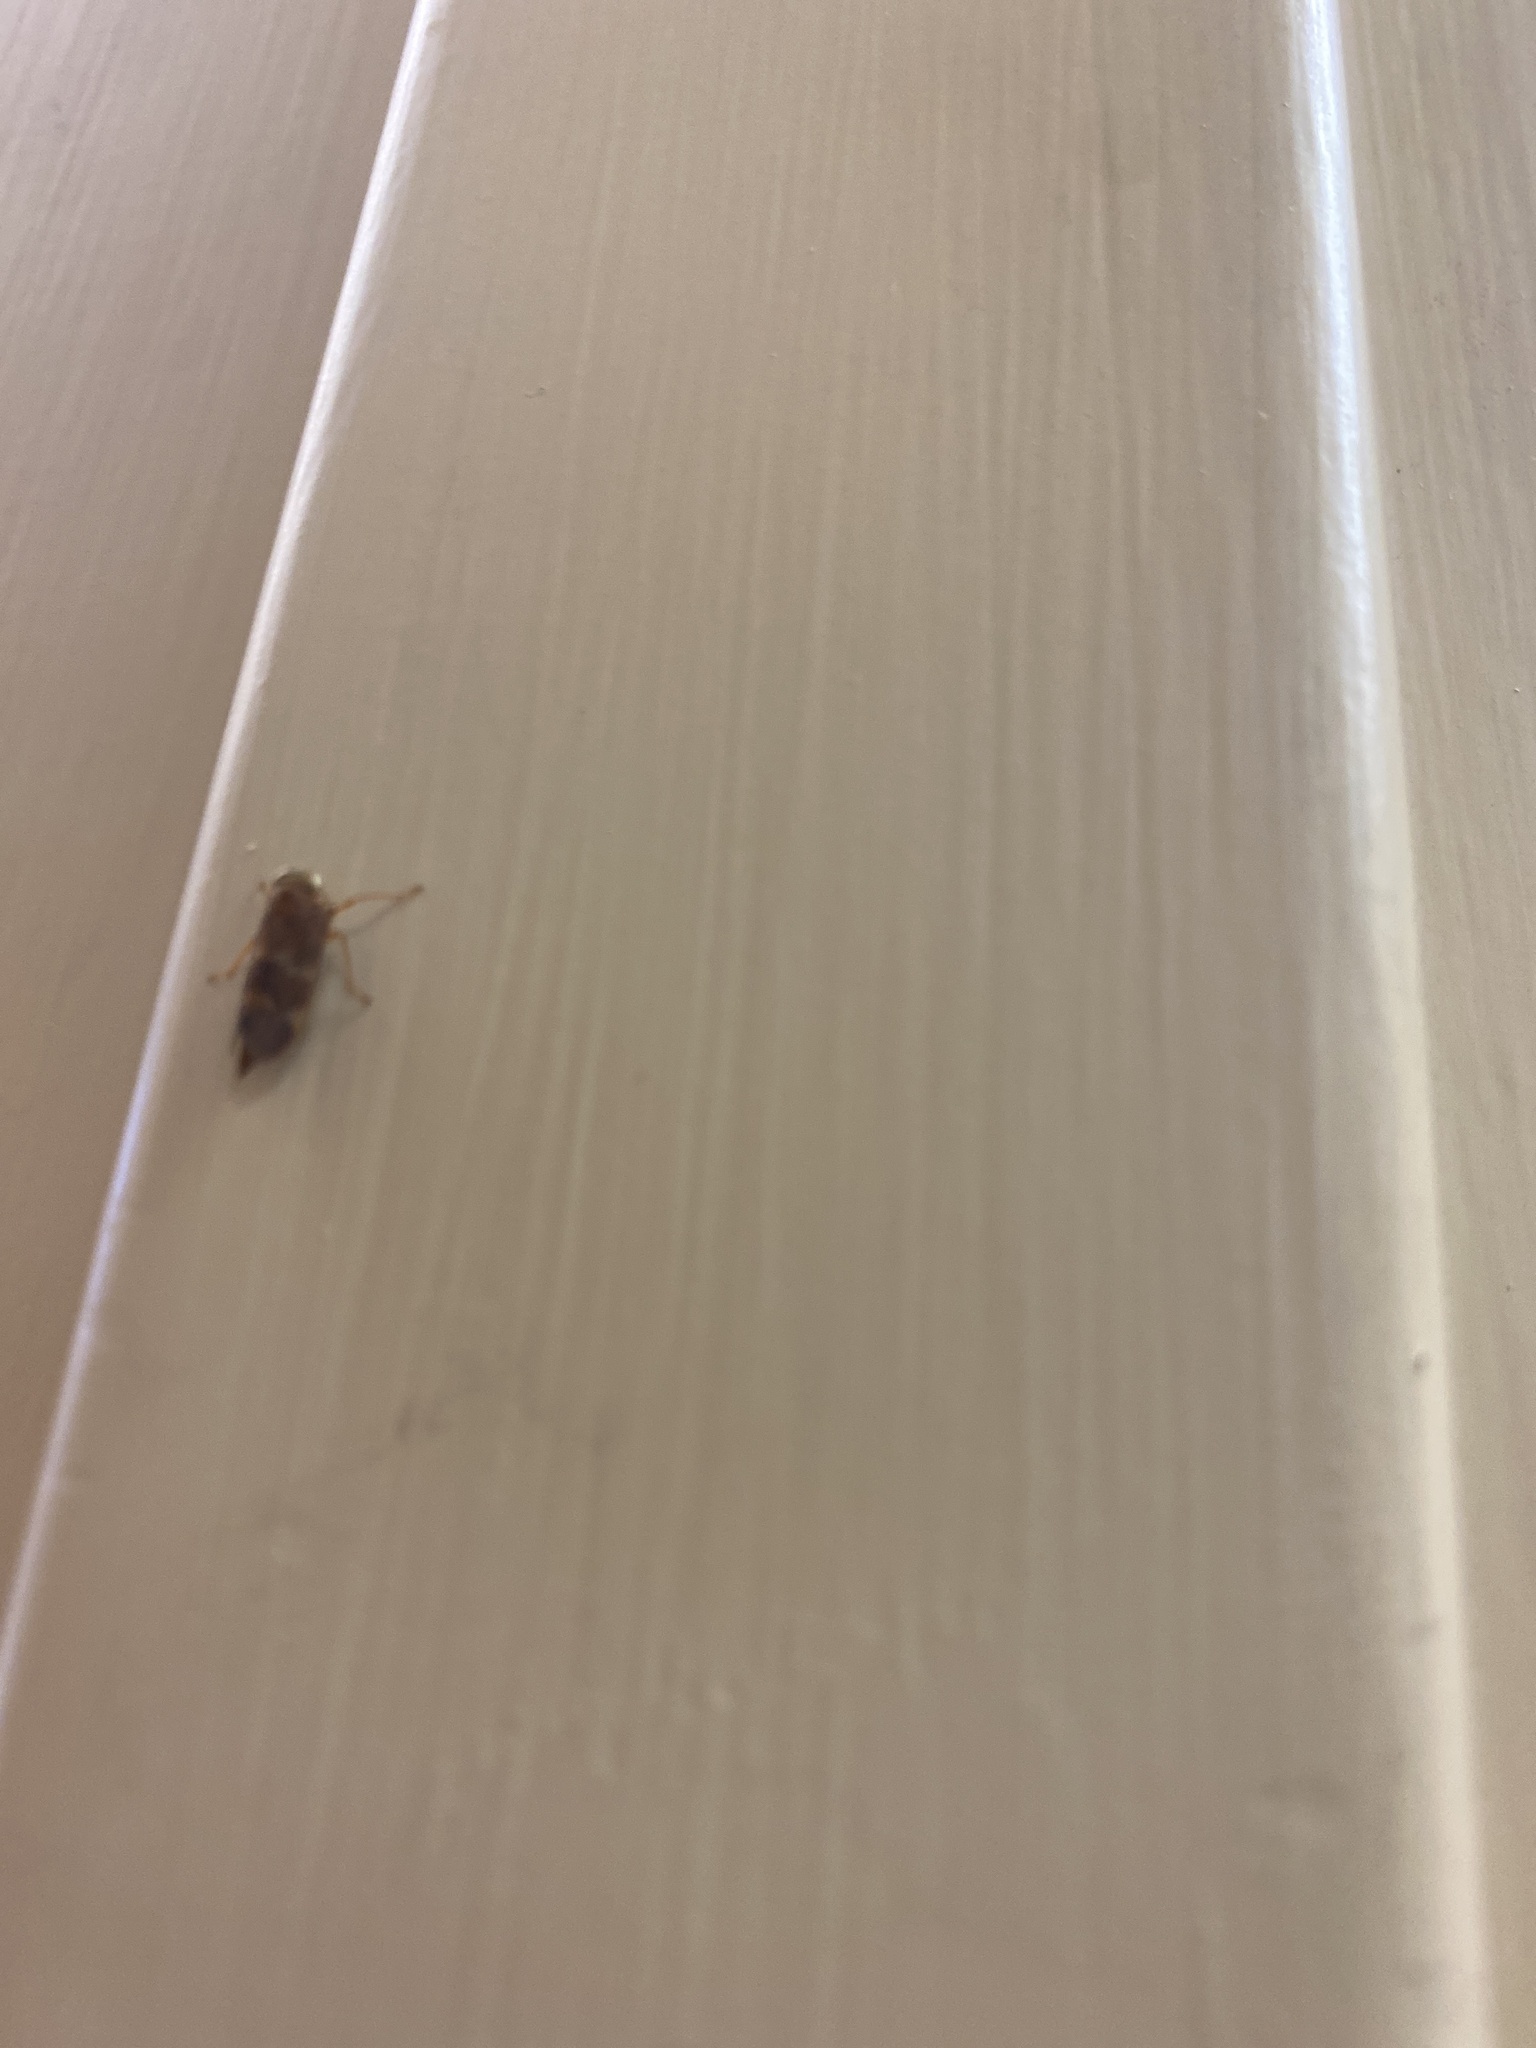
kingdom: Animalia
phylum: Arthropoda
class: Insecta
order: Hemiptera
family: Cicadellidae
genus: Jikradia
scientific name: Jikradia olitoria
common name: Coppery leafhopper
